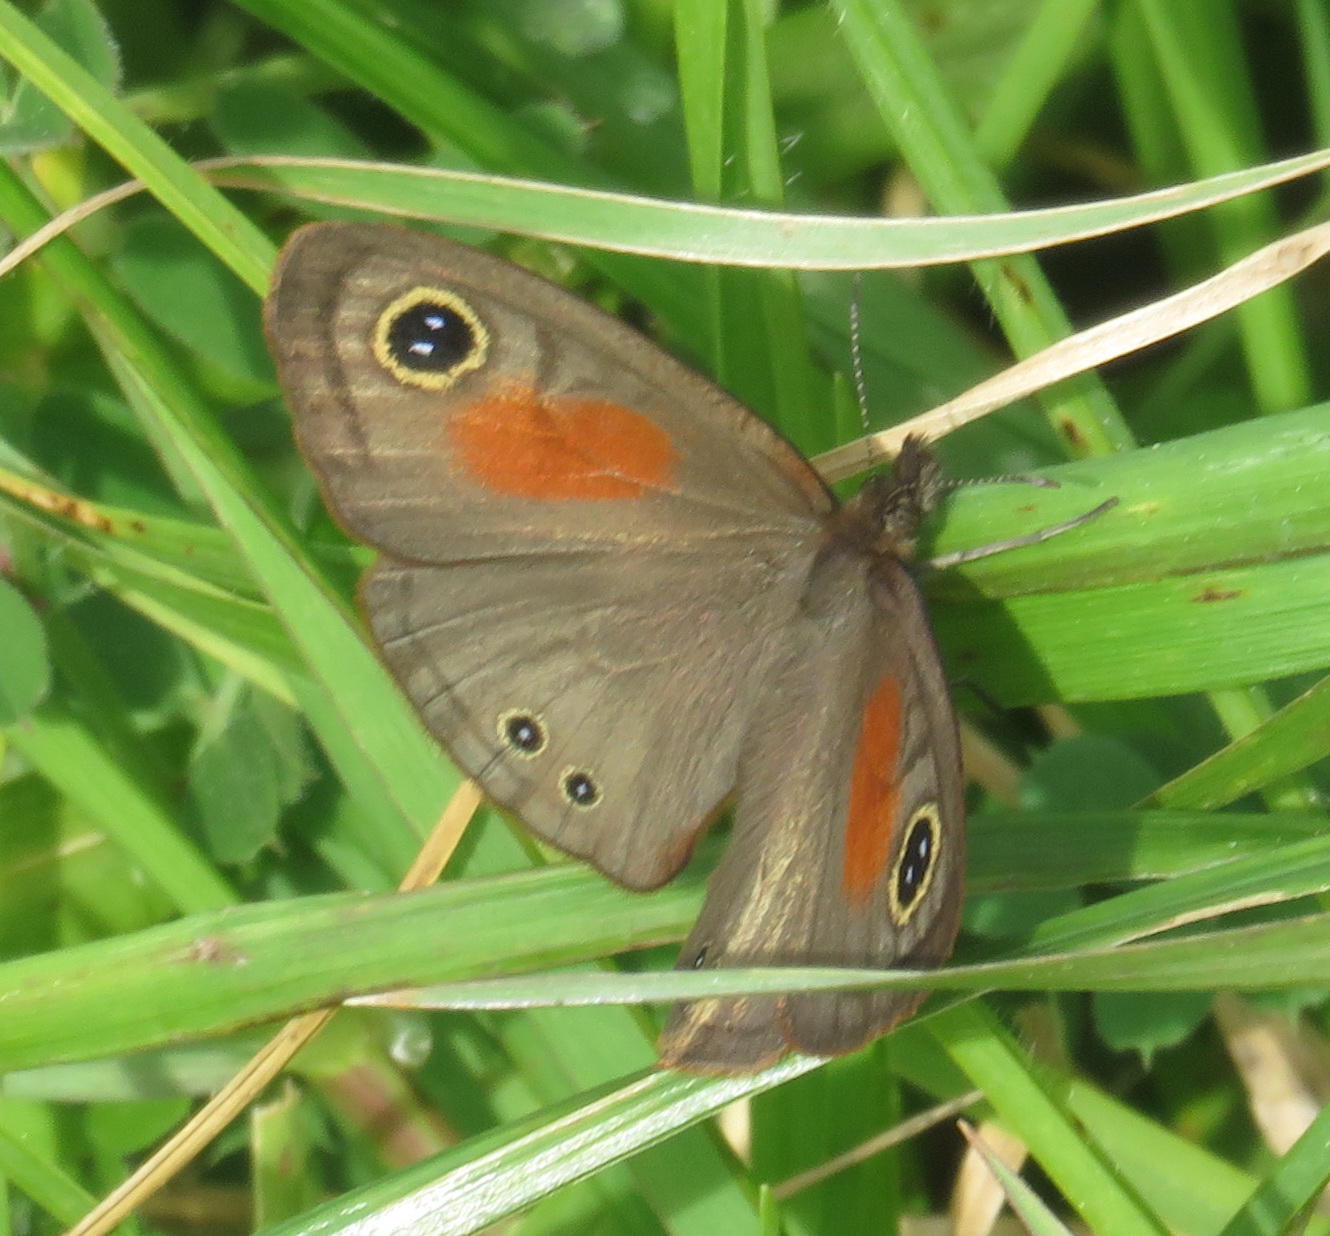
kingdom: Animalia
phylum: Arthropoda
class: Insecta
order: Lepidoptera
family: Nymphalidae
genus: Cassionympha
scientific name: Cassionympha cassius
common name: Rainforest brown
